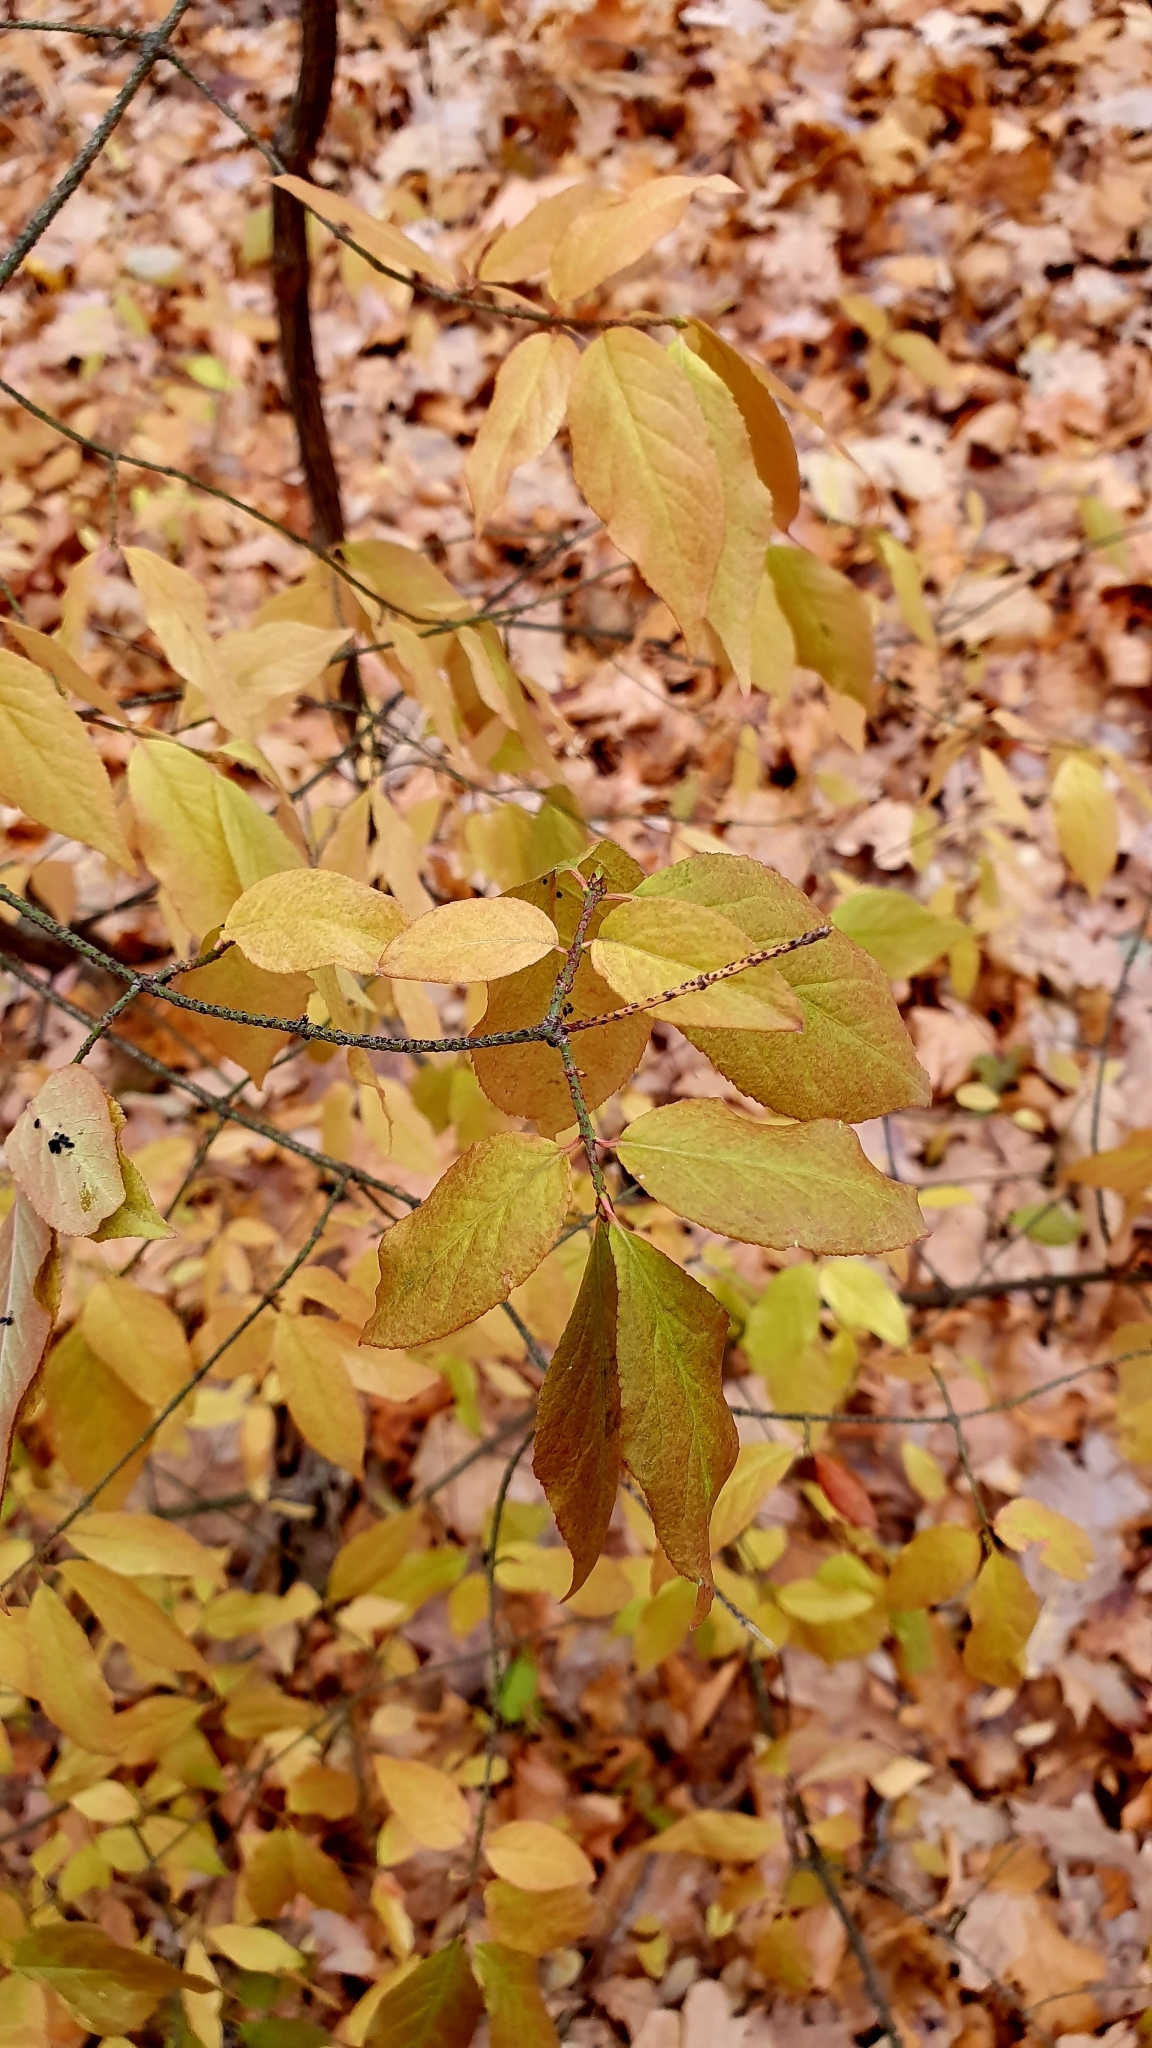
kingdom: Plantae
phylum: Tracheophyta
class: Magnoliopsida
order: Celastrales
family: Celastraceae
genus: Euonymus
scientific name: Euonymus verrucosus
